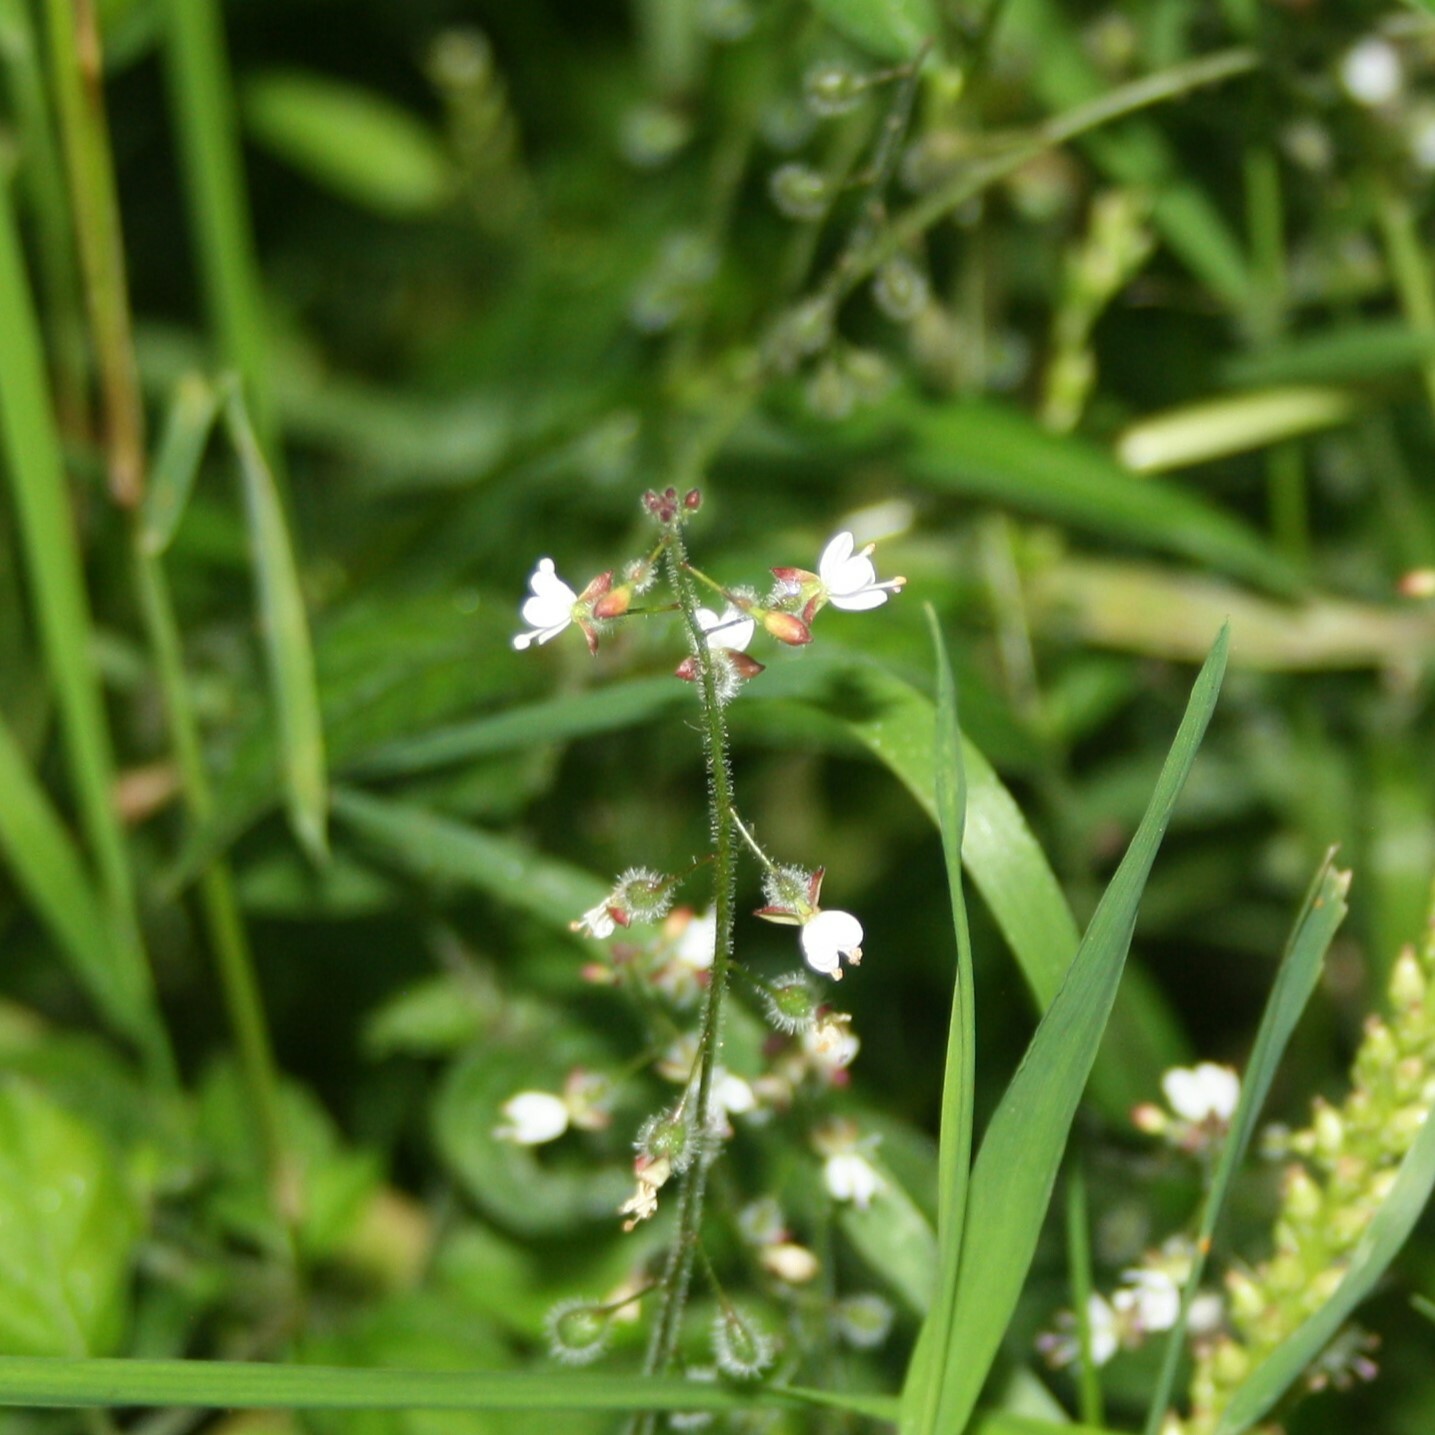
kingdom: Plantae
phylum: Tracheophyta
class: Magnoliopsida
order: Myrtales
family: Onagraceae
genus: Circaea
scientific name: Circaea lutetiana
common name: Enchanter's-nightshade
